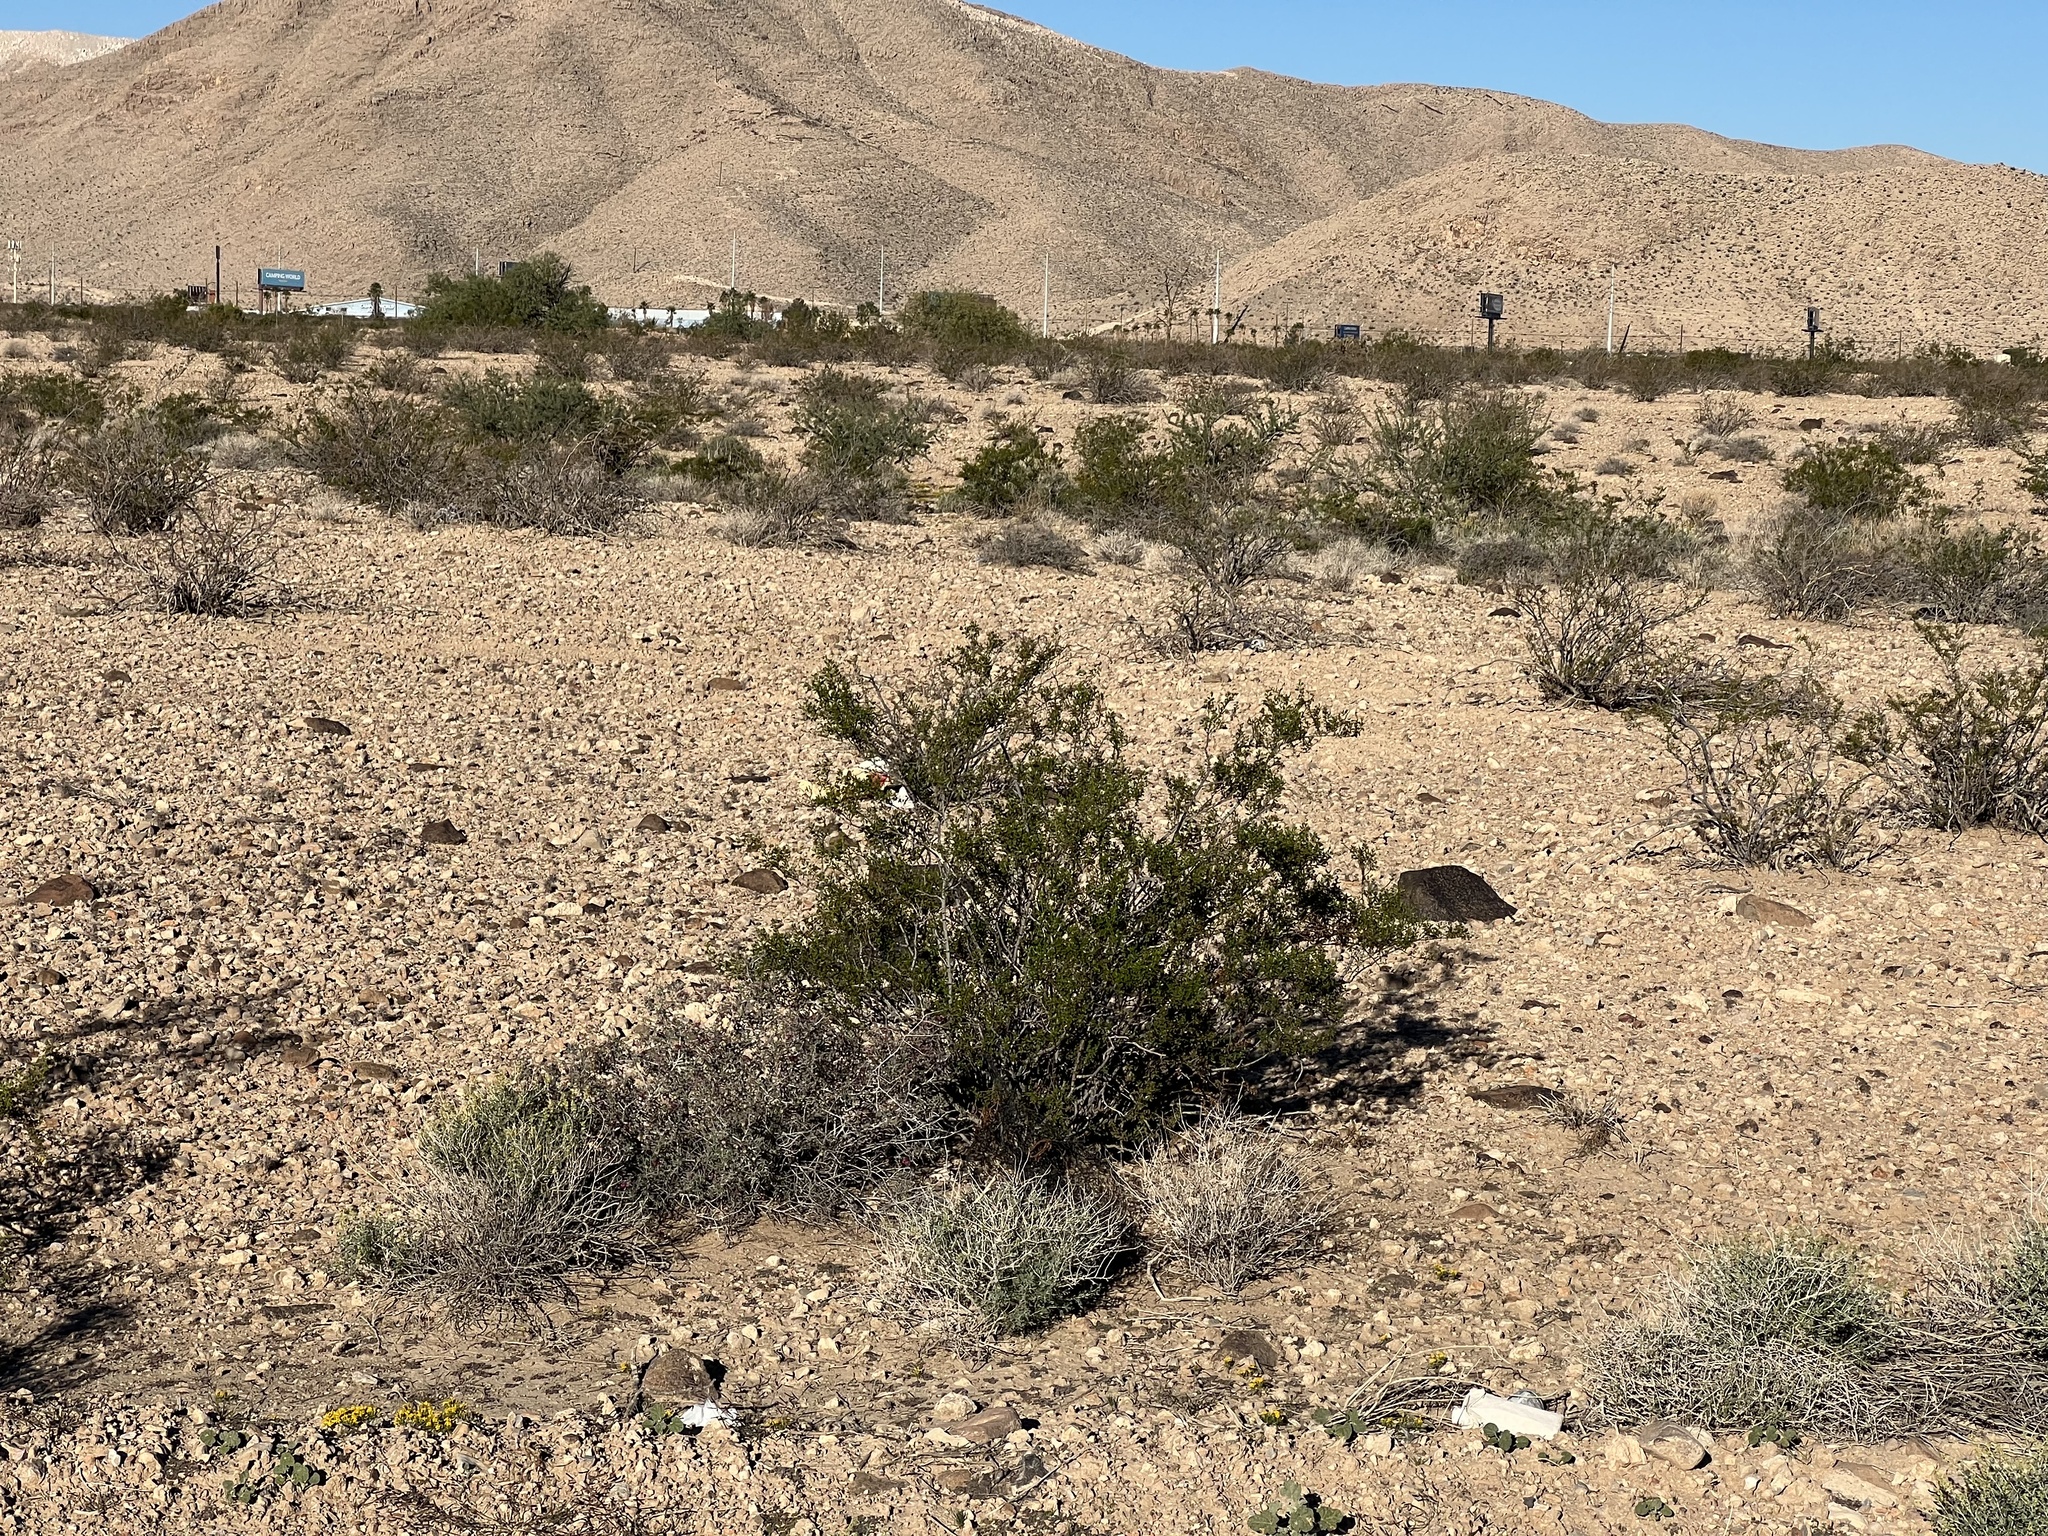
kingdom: Plantae
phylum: Tracheophyta
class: Magnoliopsida
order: Zygophyllales
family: Zygophyllaceae
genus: Larrea
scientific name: Larrea tridentata
